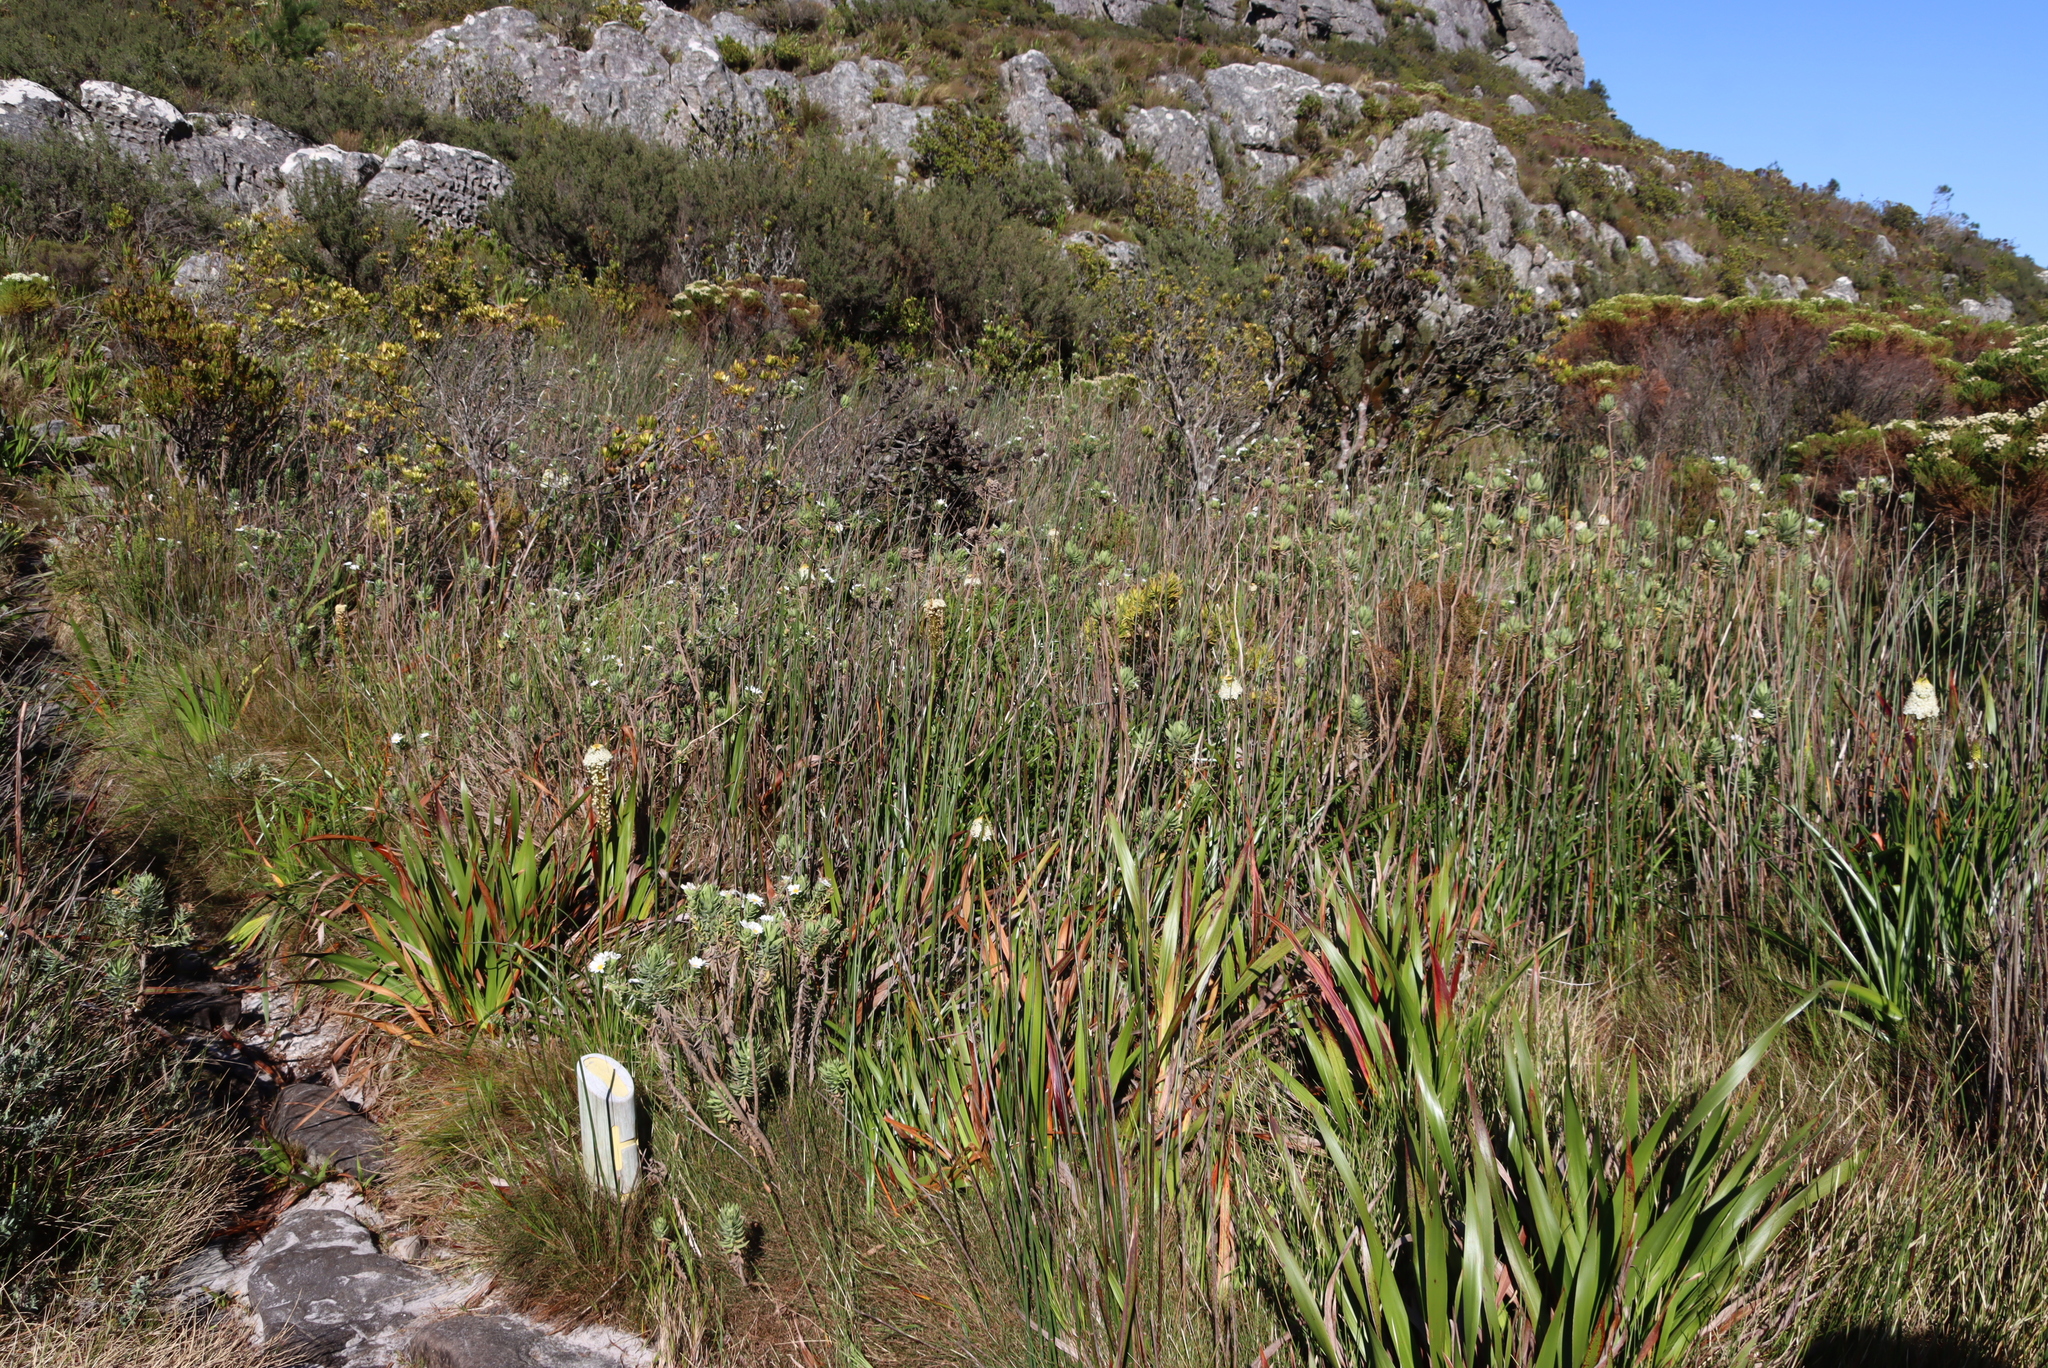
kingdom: Plantae
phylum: Tracheophyta
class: Magnoliopsida
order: Asterales
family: Asteraceae
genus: Osmitopsis
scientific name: Osmitopsis asteriscoides
